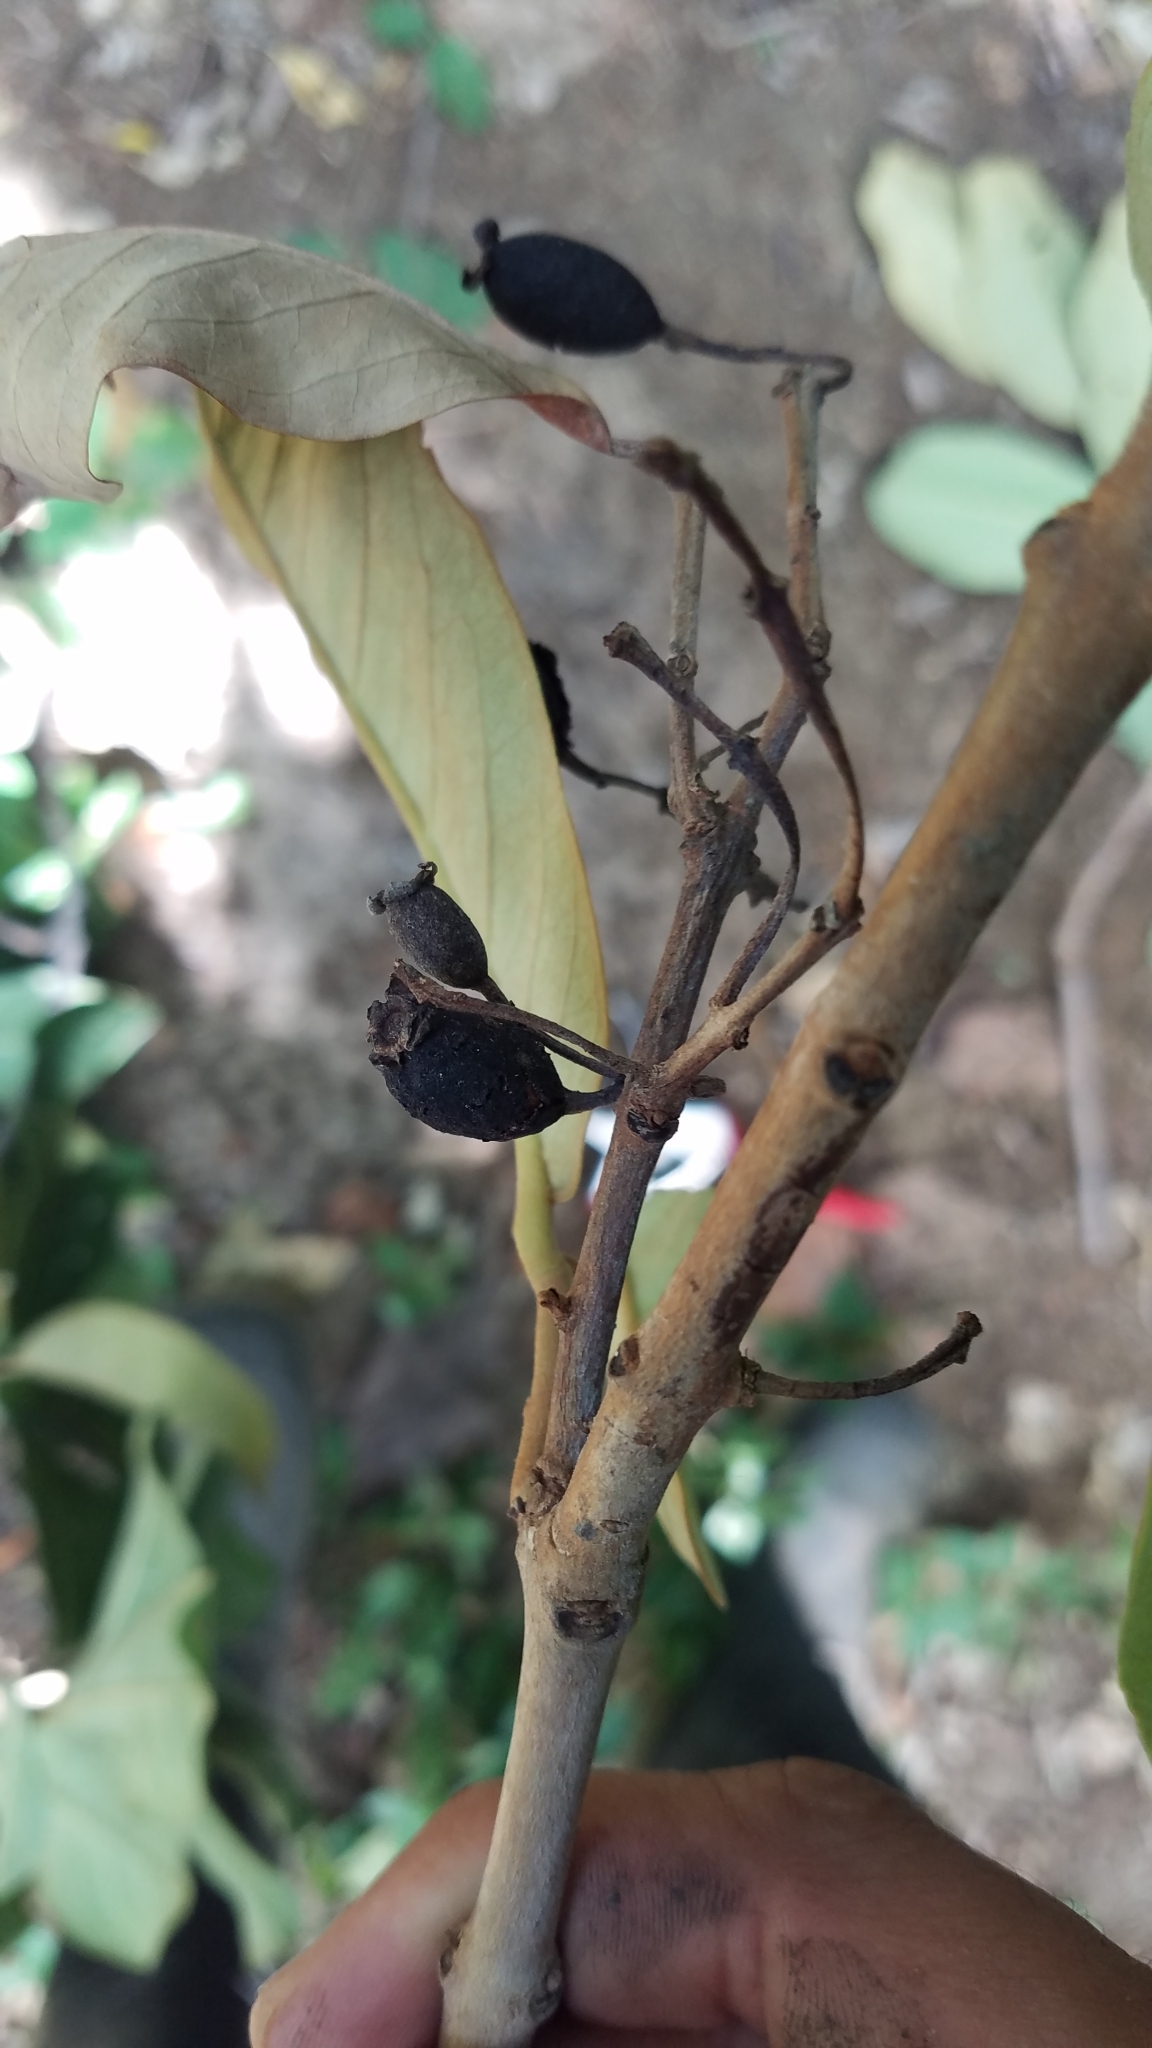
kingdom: Plantae
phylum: Tracheophyta
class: Magnoliopsida
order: Myrtales
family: Myrtaceae
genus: Eugenia
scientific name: Eugenia hiraeifolia
